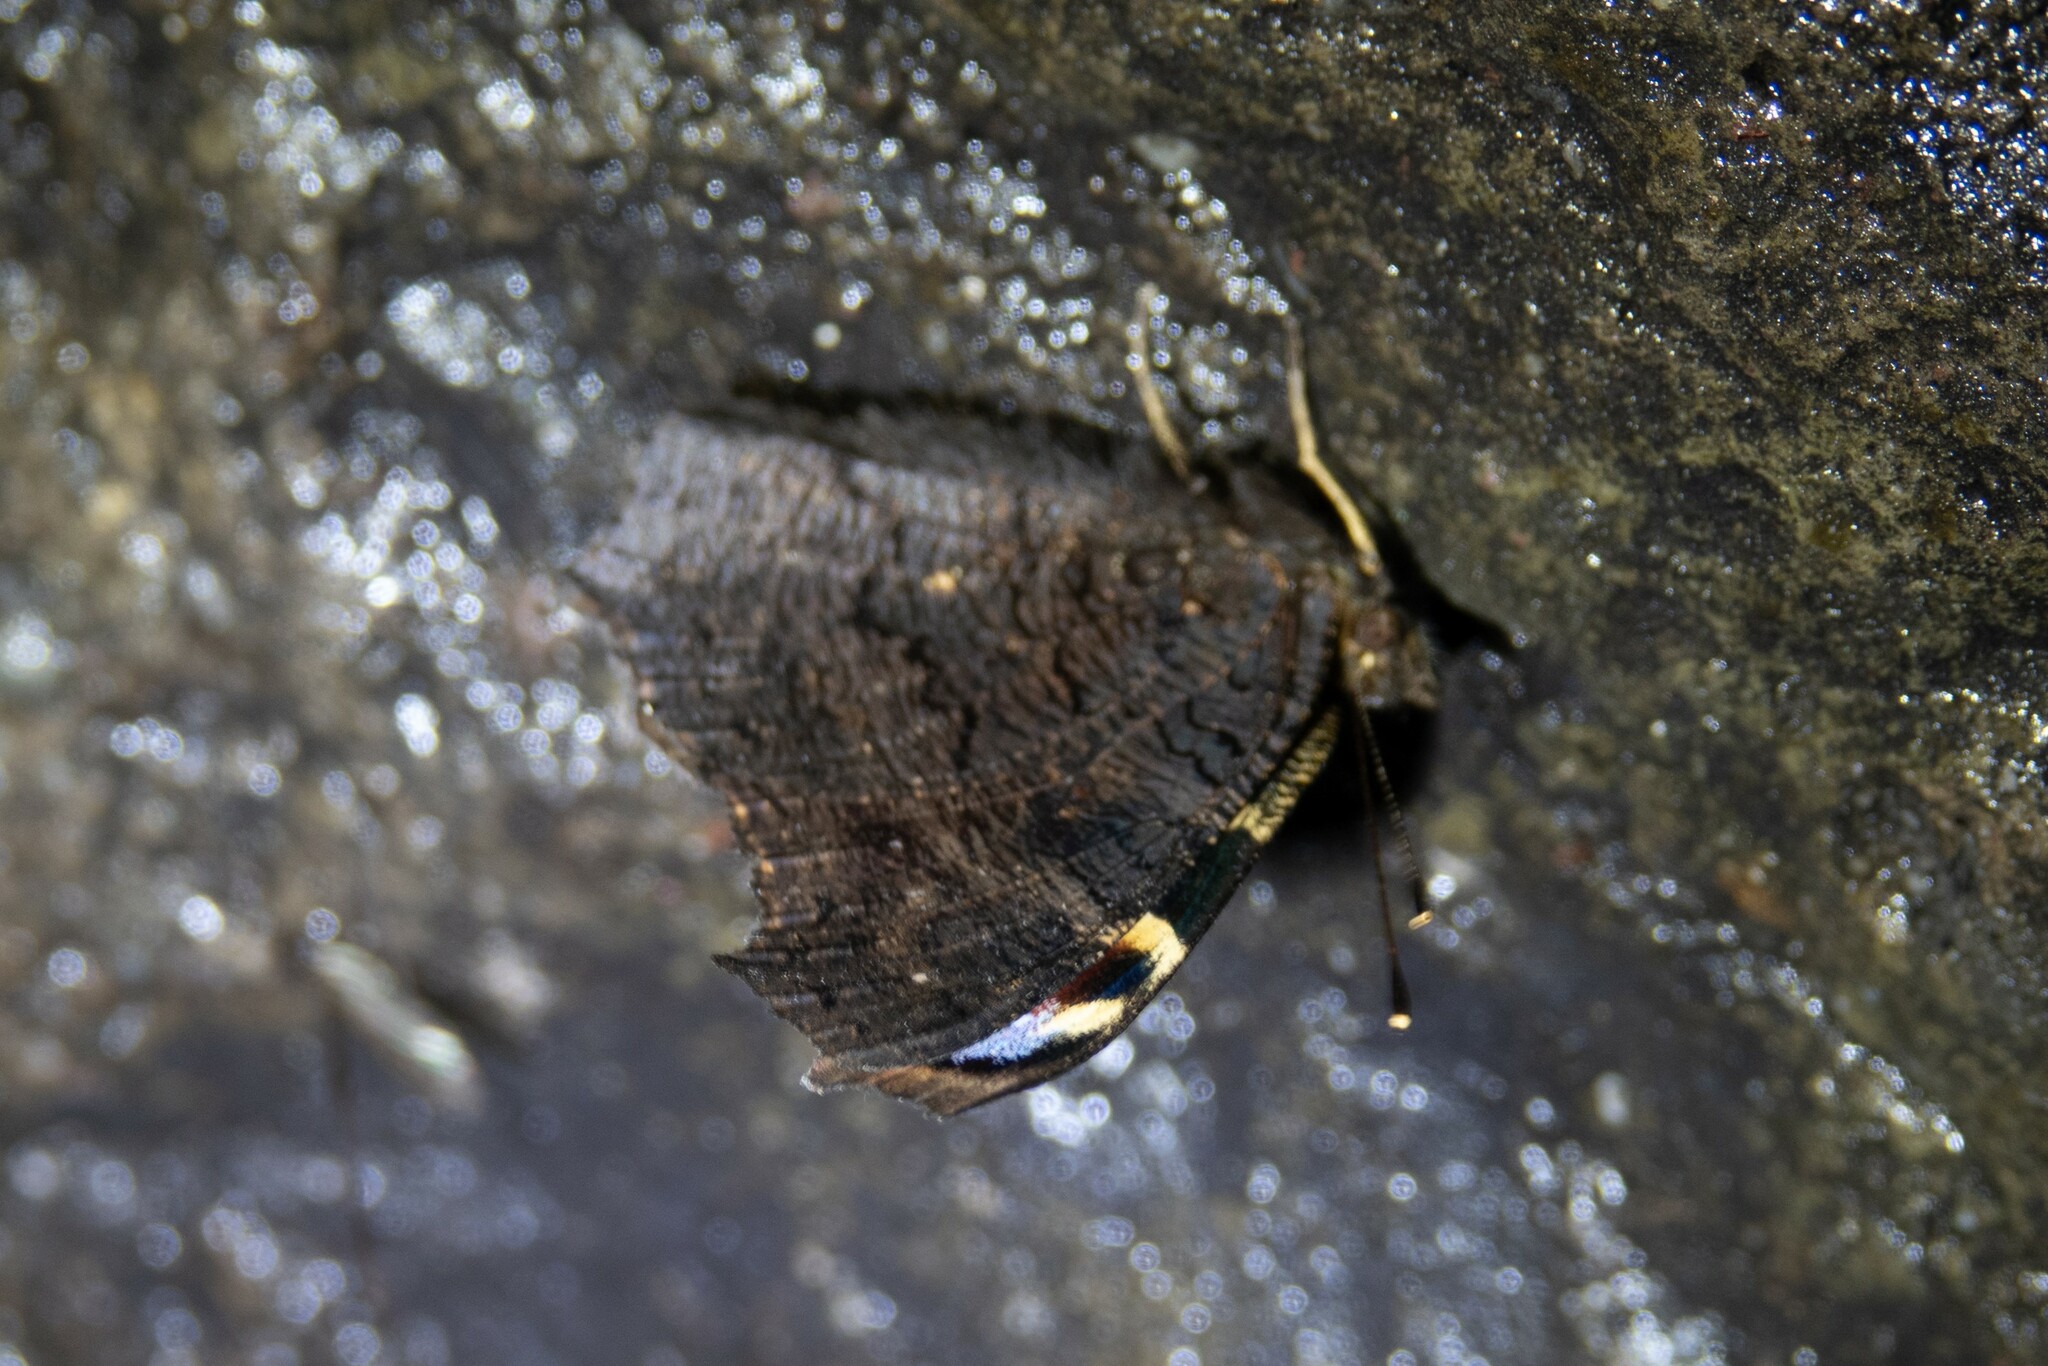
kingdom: Animalia
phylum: Arthropoda
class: Insecta
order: Lepidoptera
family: Nymphalidae
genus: Aglais
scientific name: Aglais io
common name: Peacock
